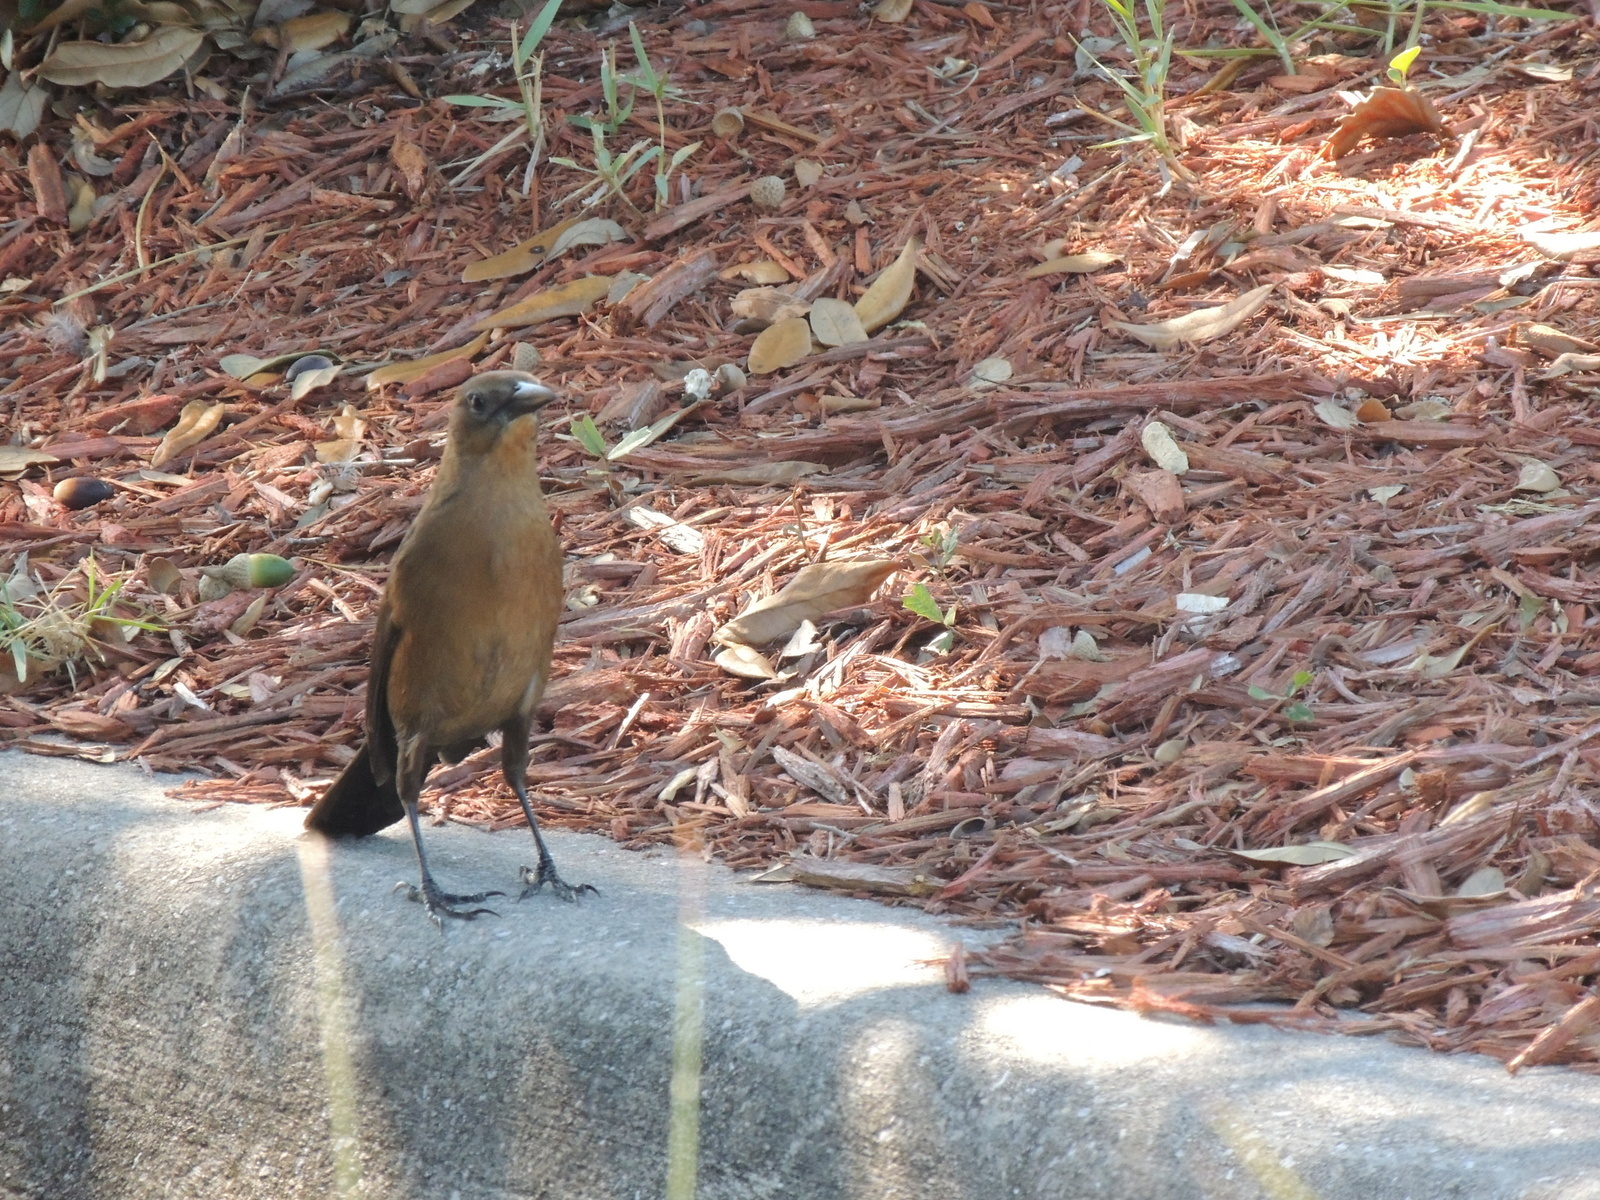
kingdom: Animalia
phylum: Chordata
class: Aves
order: Passeriformes
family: Icteridae
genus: Quiscalus
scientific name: Quiscalus major
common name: Boat-tailed grackle
